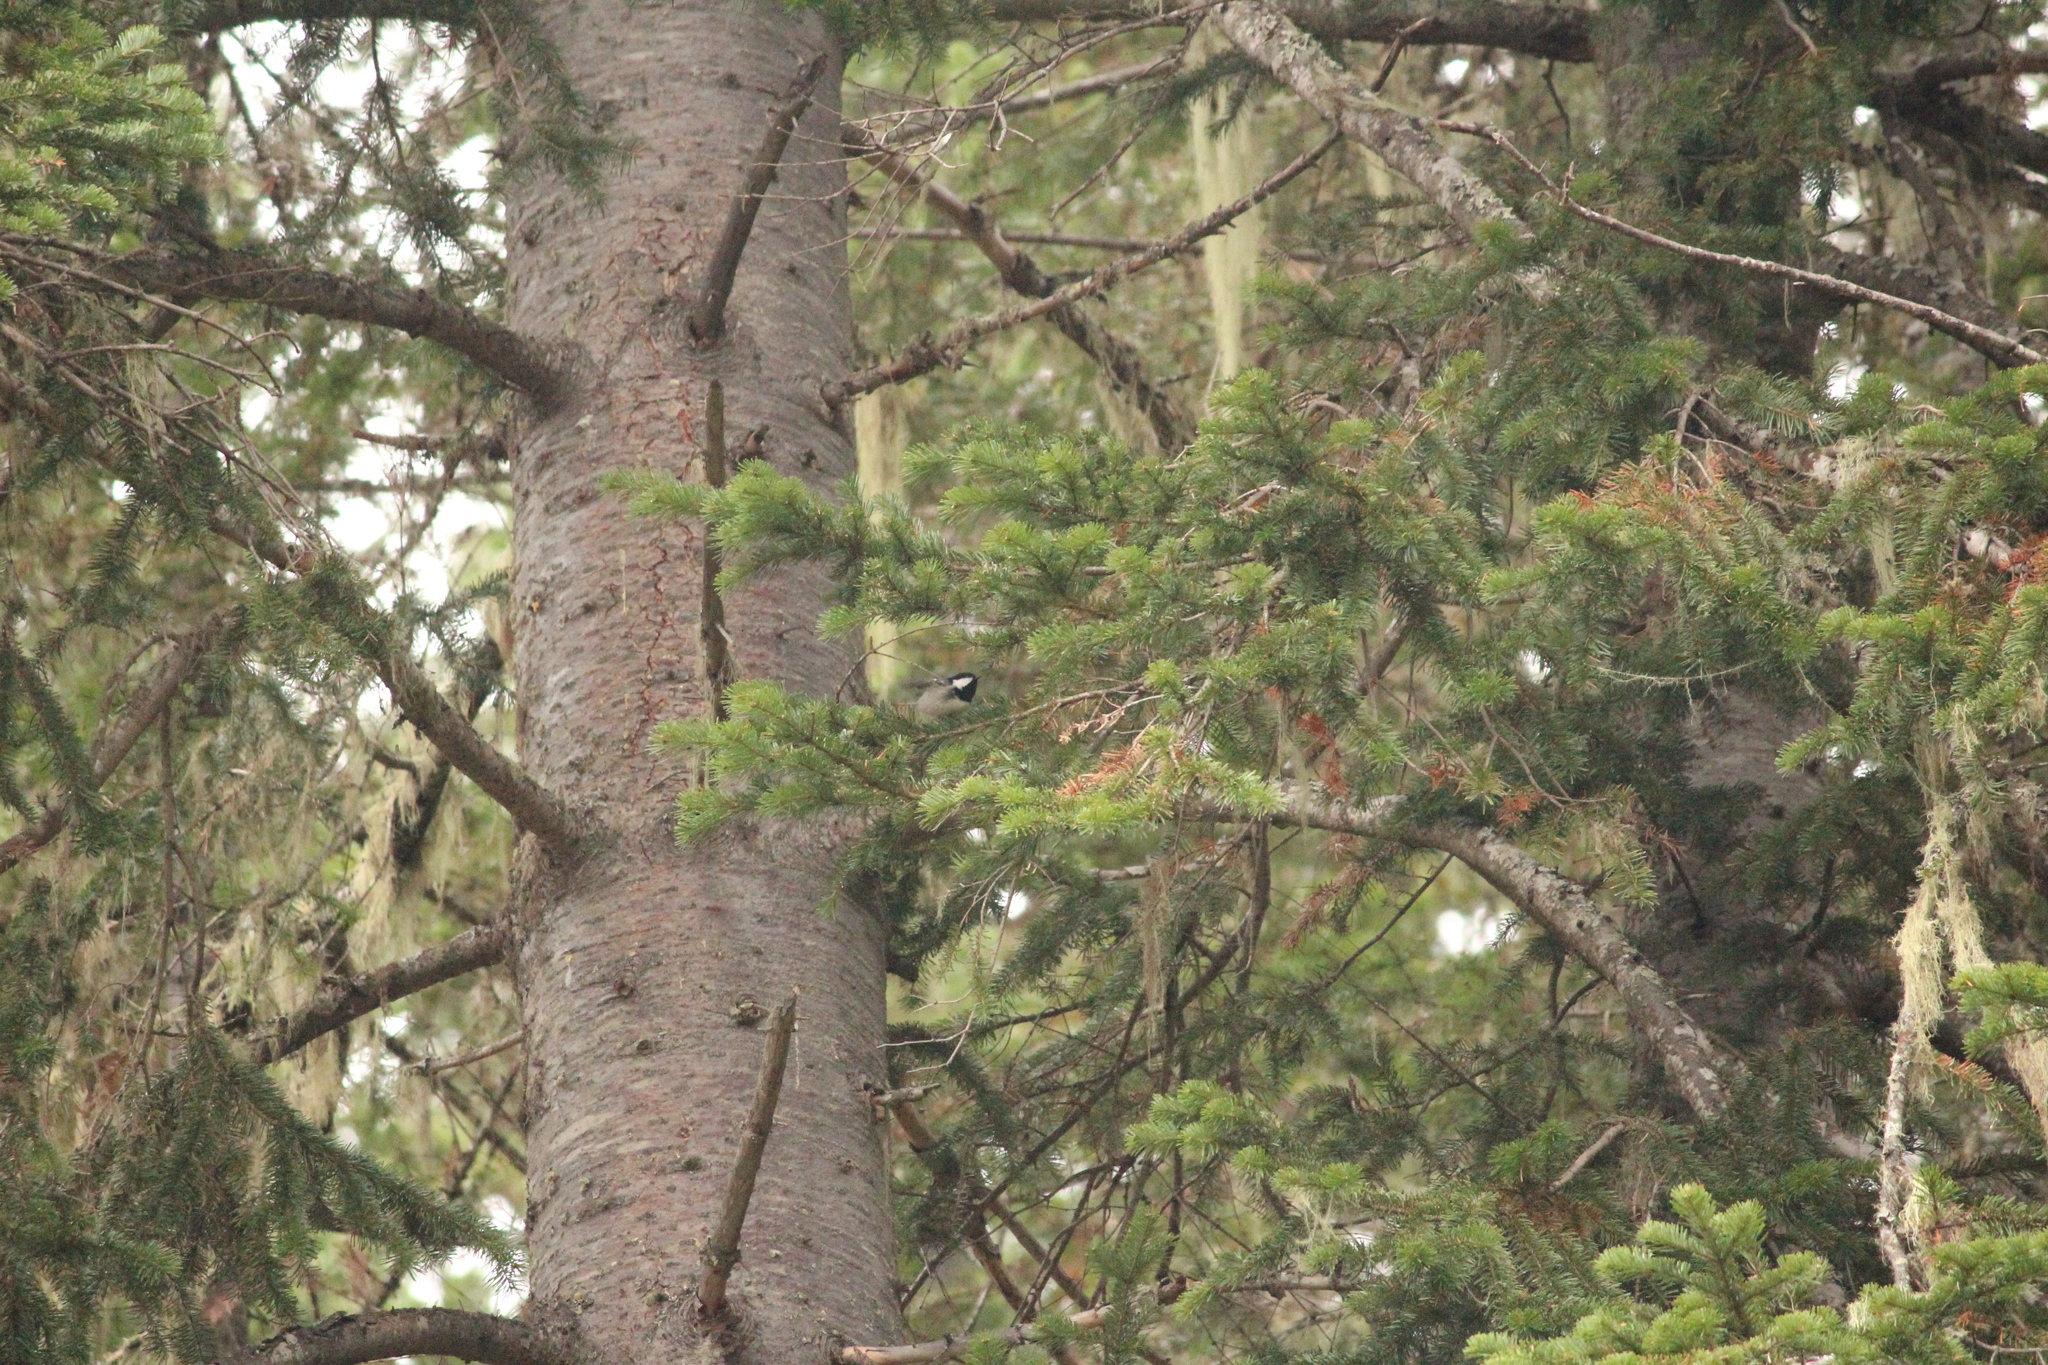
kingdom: Animalia
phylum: Chordata
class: Aves
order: Passeriformes
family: Paridae
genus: Periparus
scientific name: Periparus ater
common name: Coal tit
